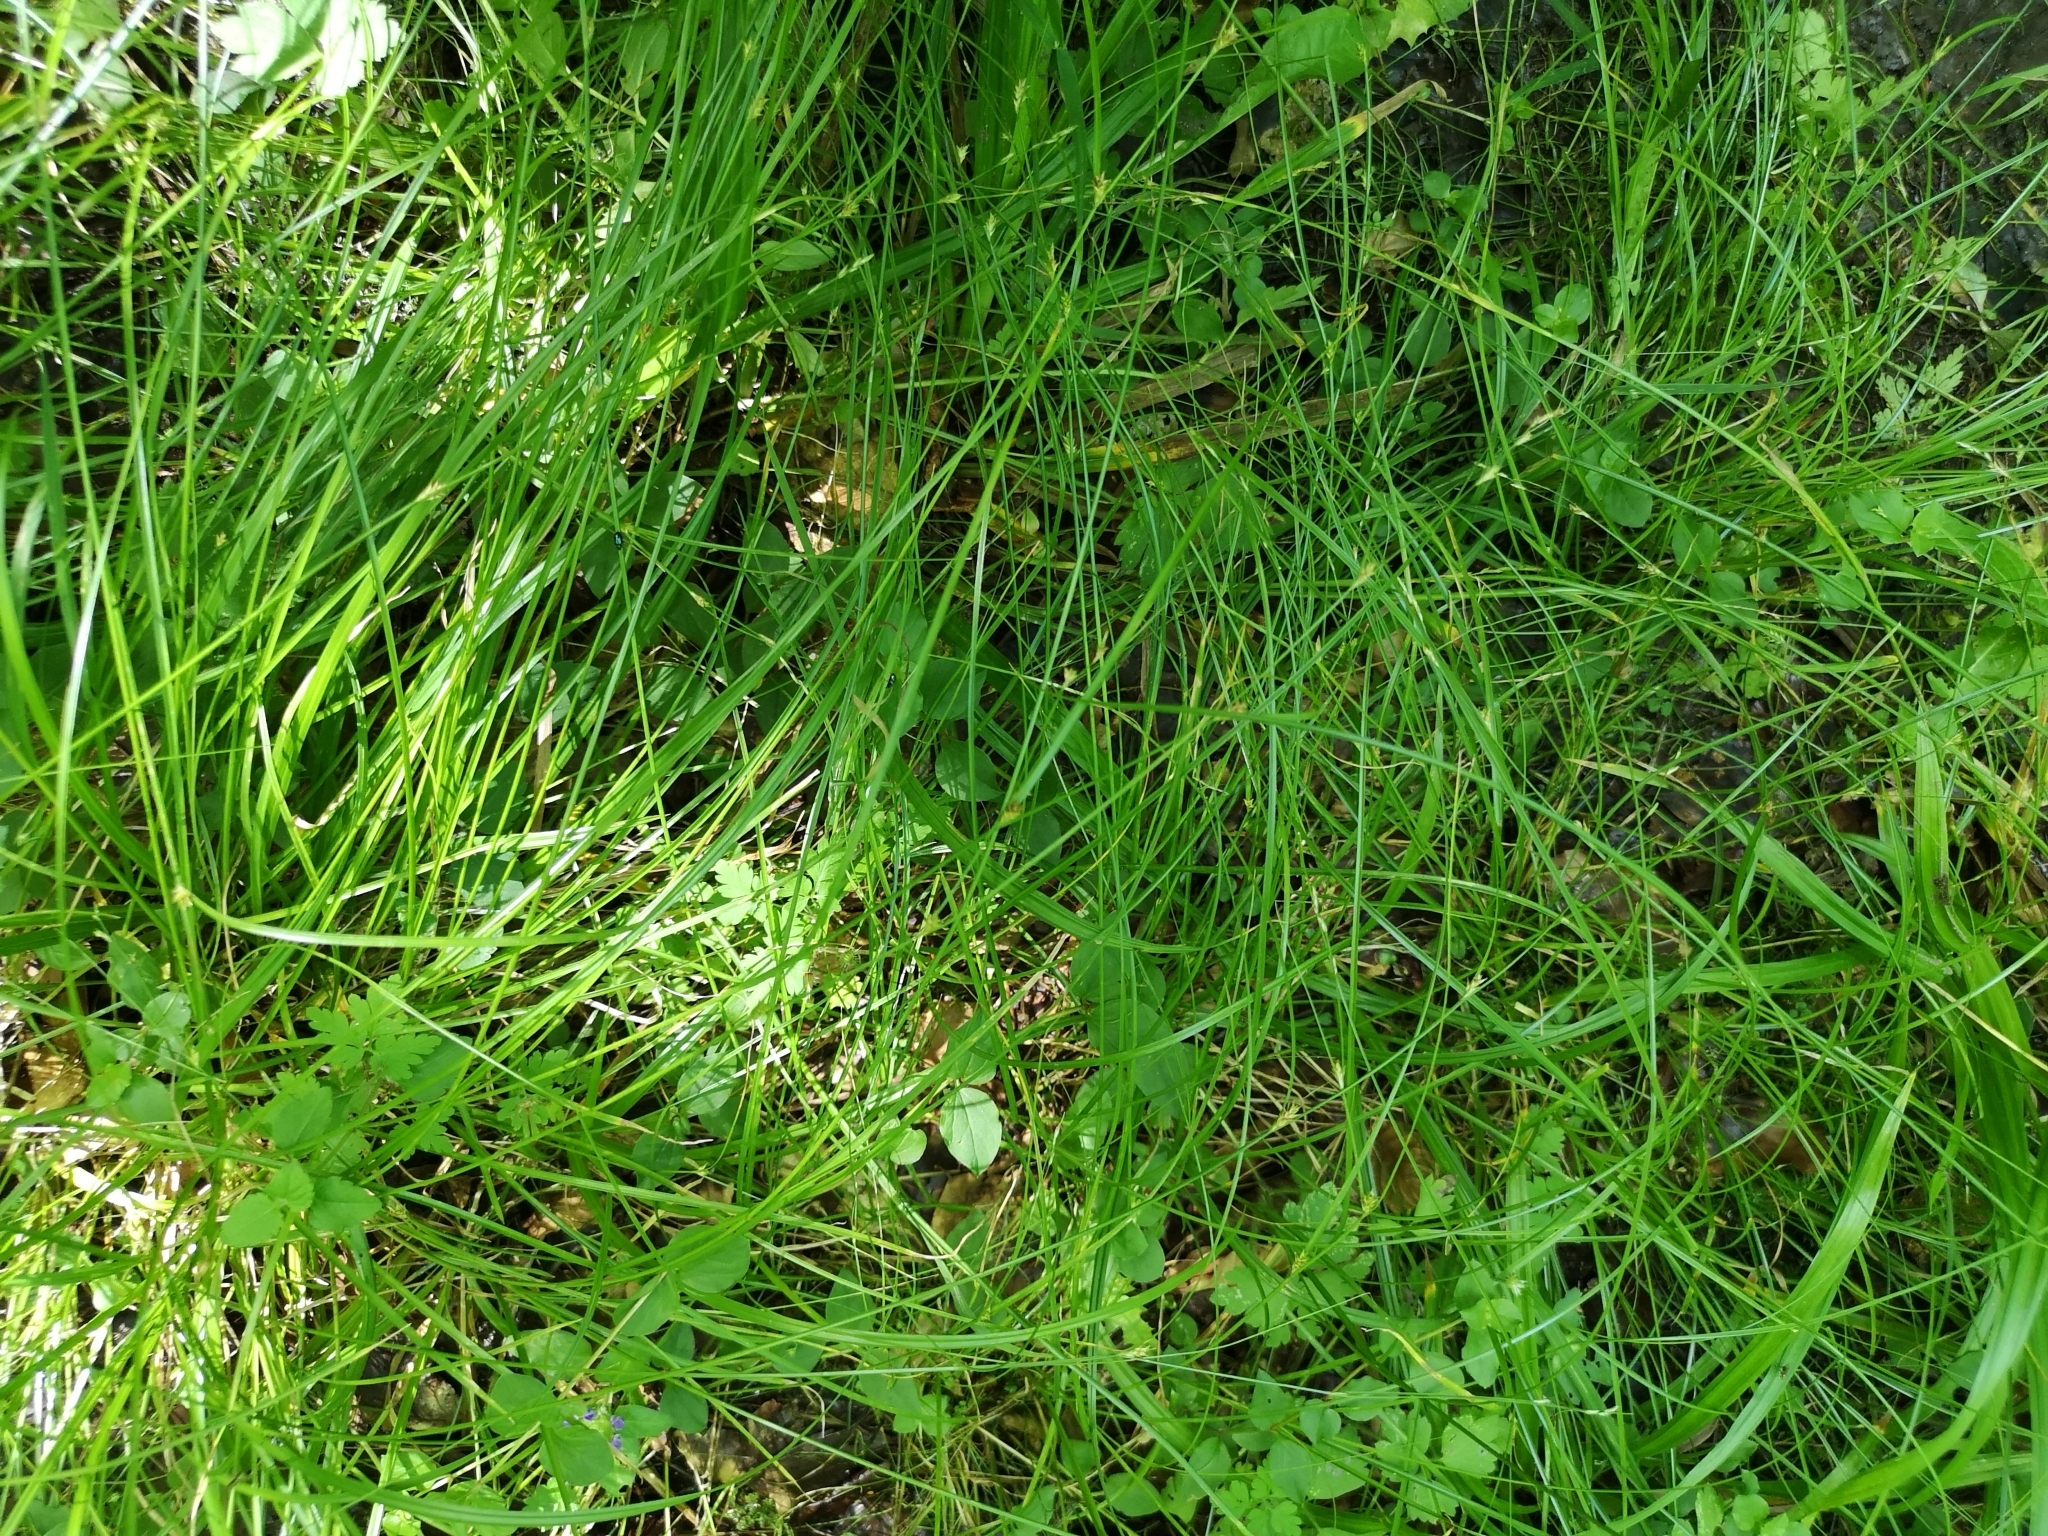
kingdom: Plantae
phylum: Tracheophyta
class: Liliopsida
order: Poales
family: Cyperaceae
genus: Carex
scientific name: Carex remota
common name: Remote sedge
